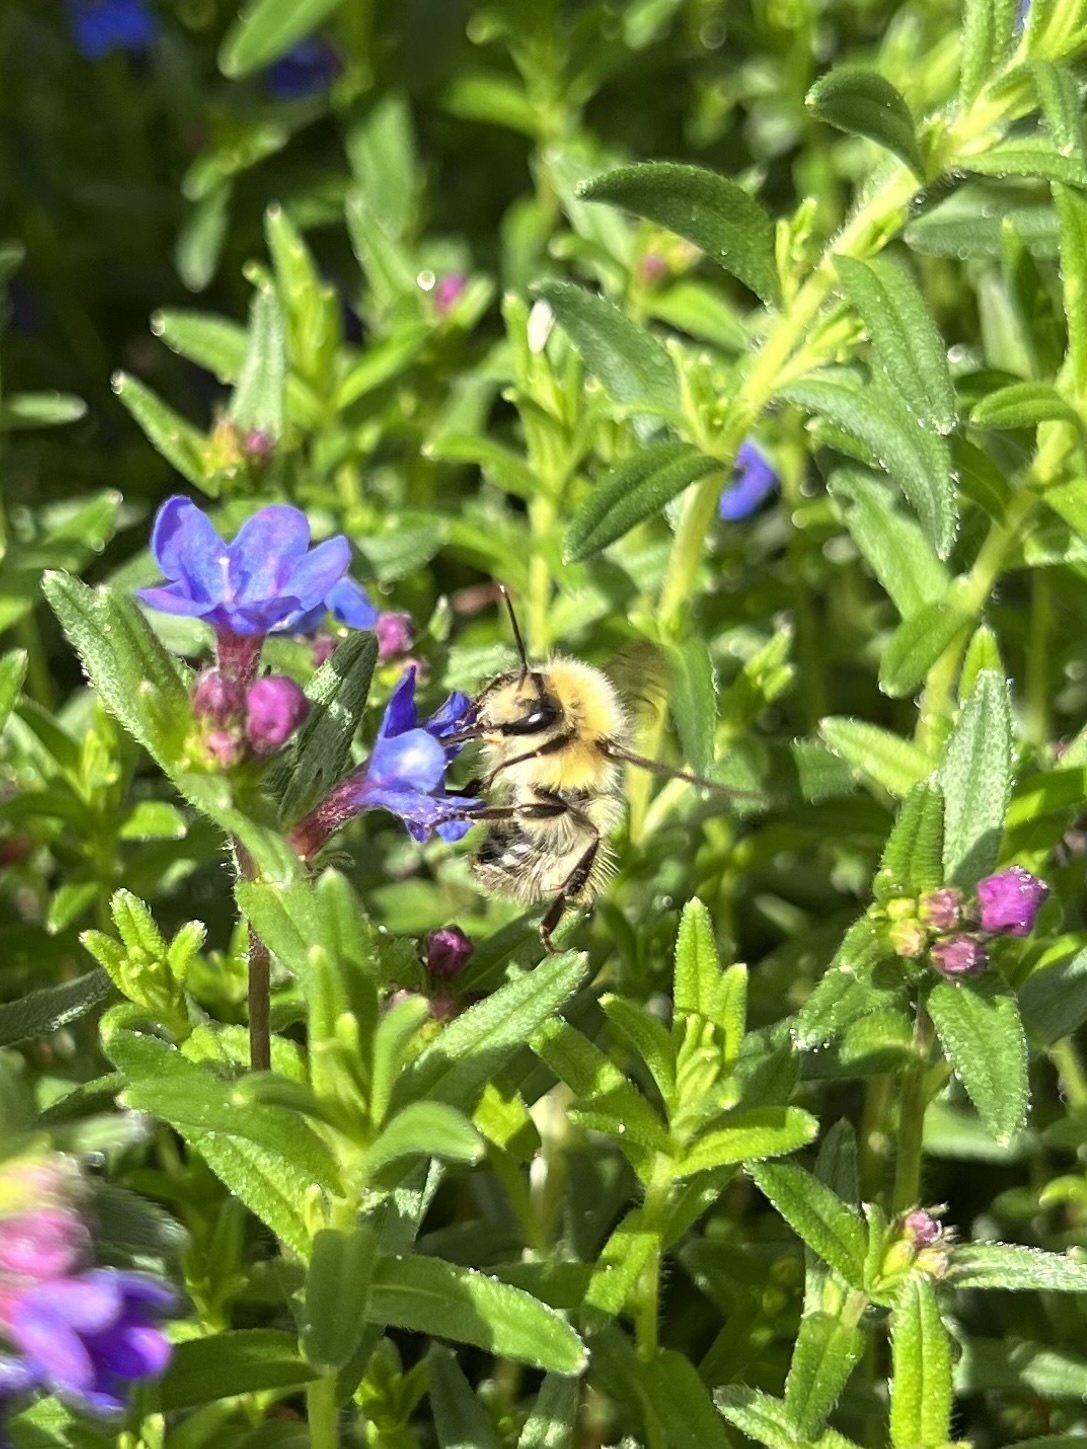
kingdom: Animalia
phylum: Arthropoda
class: Insecta
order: Hymenoptera
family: Apidae
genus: Bombus
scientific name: Bombus flavifrons
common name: Yellow head bumble bee
